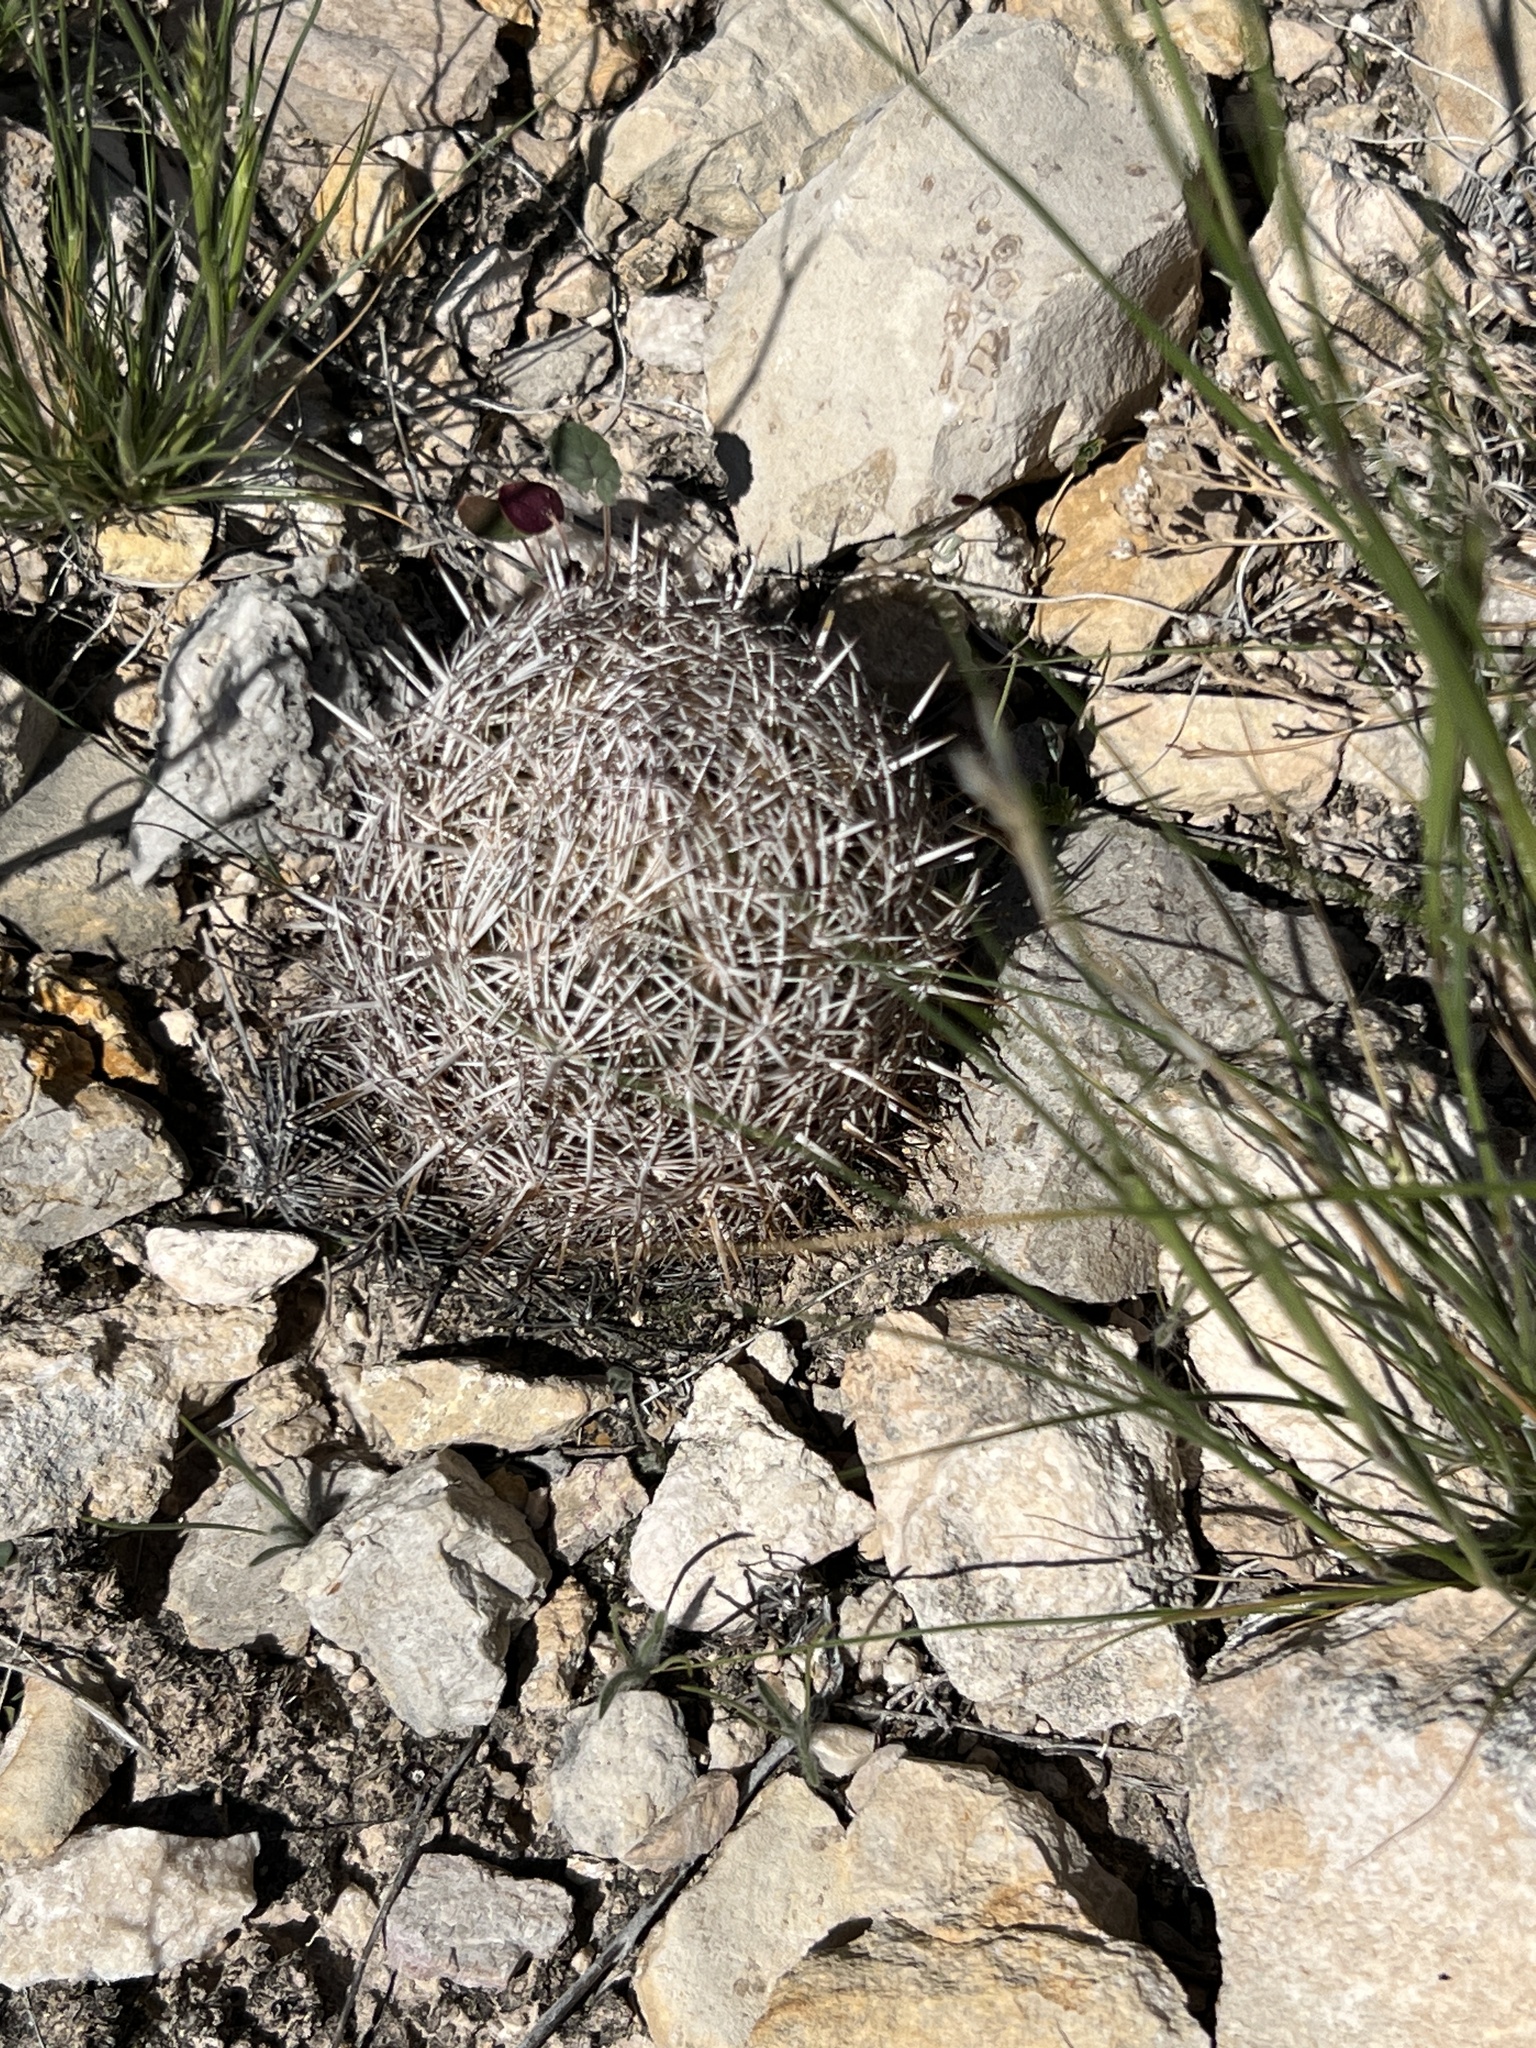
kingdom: Plantae
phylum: Tracheophyta
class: Magnoliopsida
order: Caryophyllales
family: Cactaceae
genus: Coryphantha
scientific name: Coryphantha echinus
